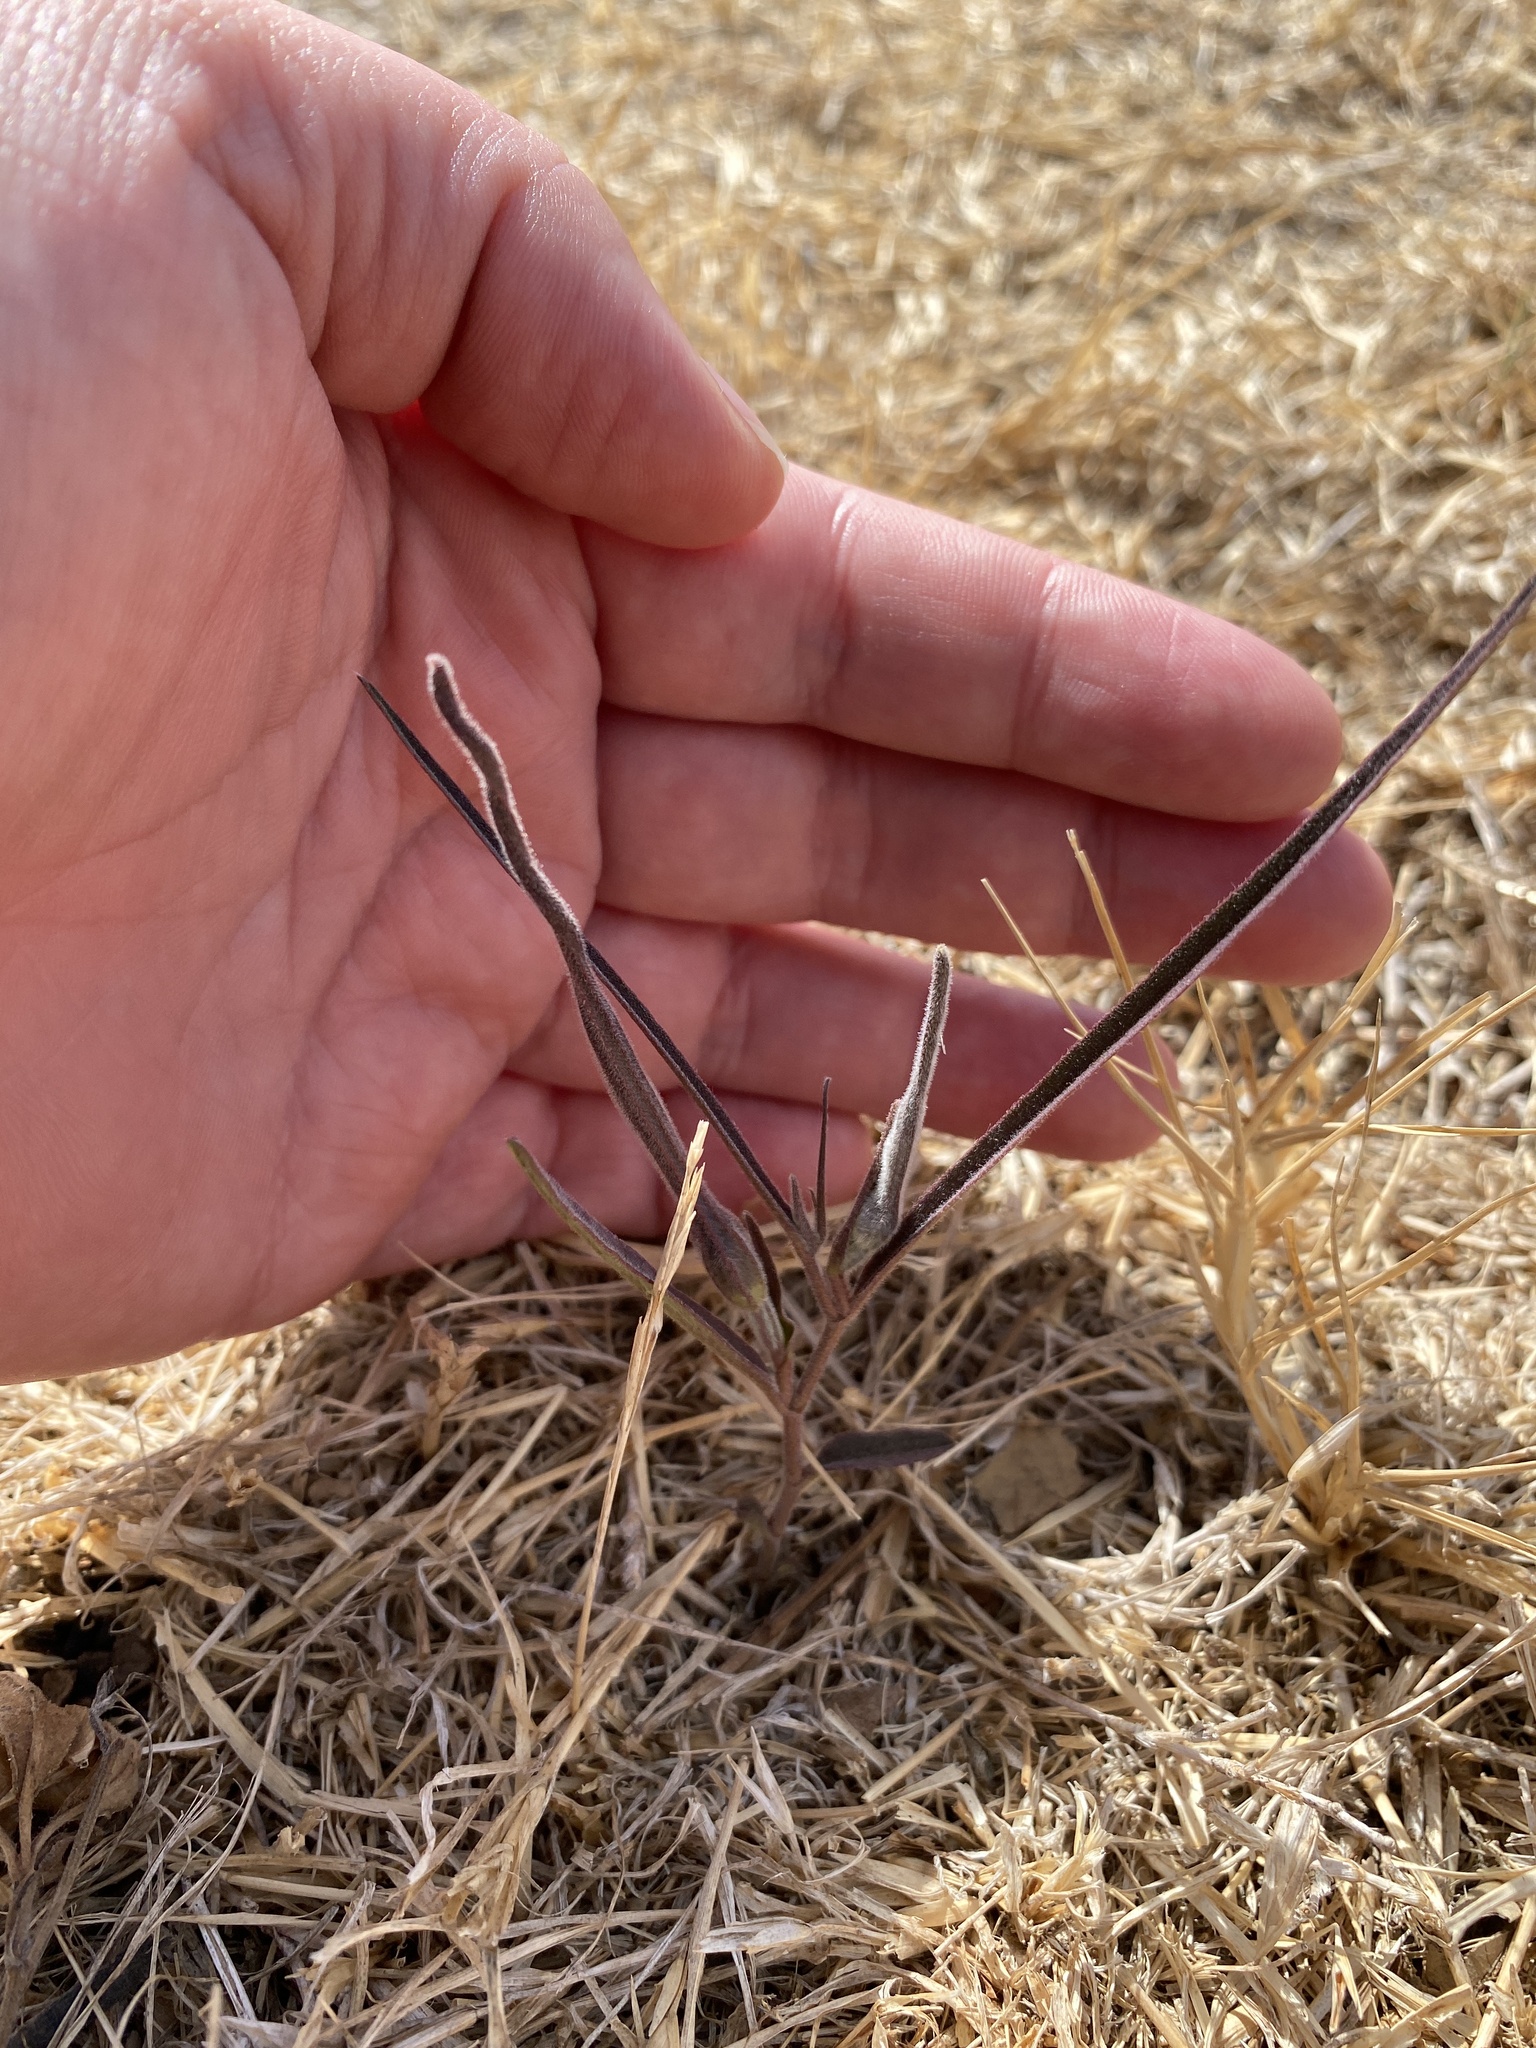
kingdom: Plantae
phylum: Tracheophyta
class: Magnoliopsida
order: Piperales
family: Aristolochiaceae
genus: Aristolochia
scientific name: Aristolochia erecta
